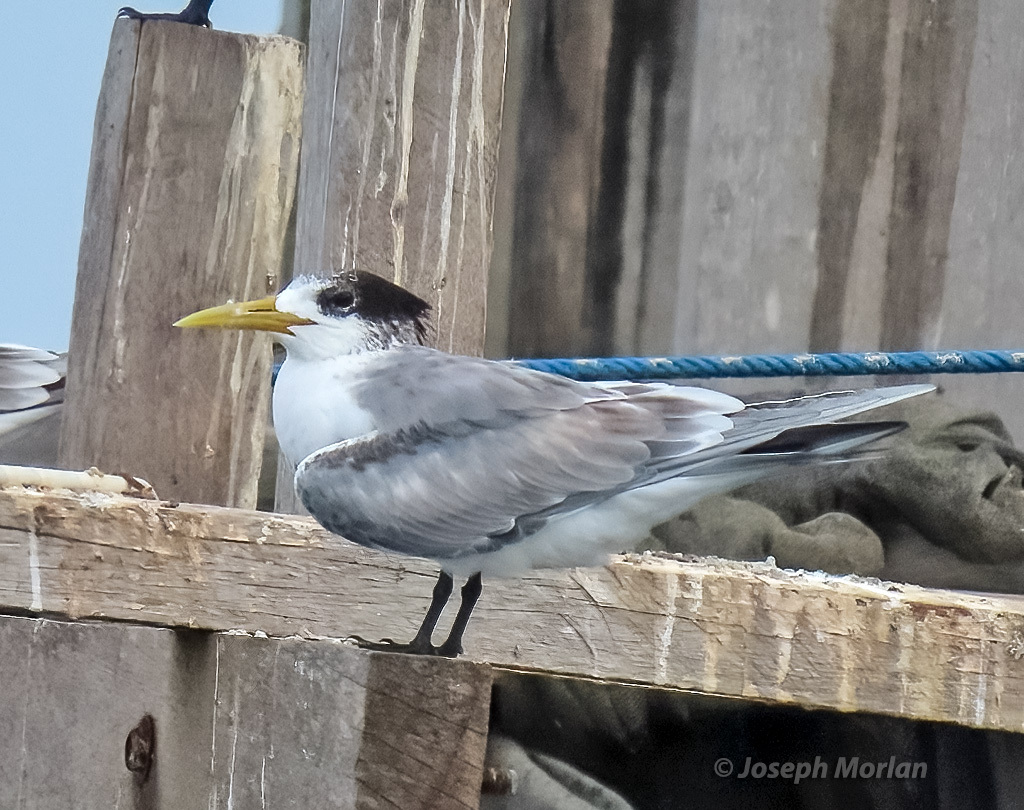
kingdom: Animalia
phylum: Chordata
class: Aves
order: Charadriiformes
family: Laridae
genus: Thalasseus
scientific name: Thalasseus bergii
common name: Greater crested tern
